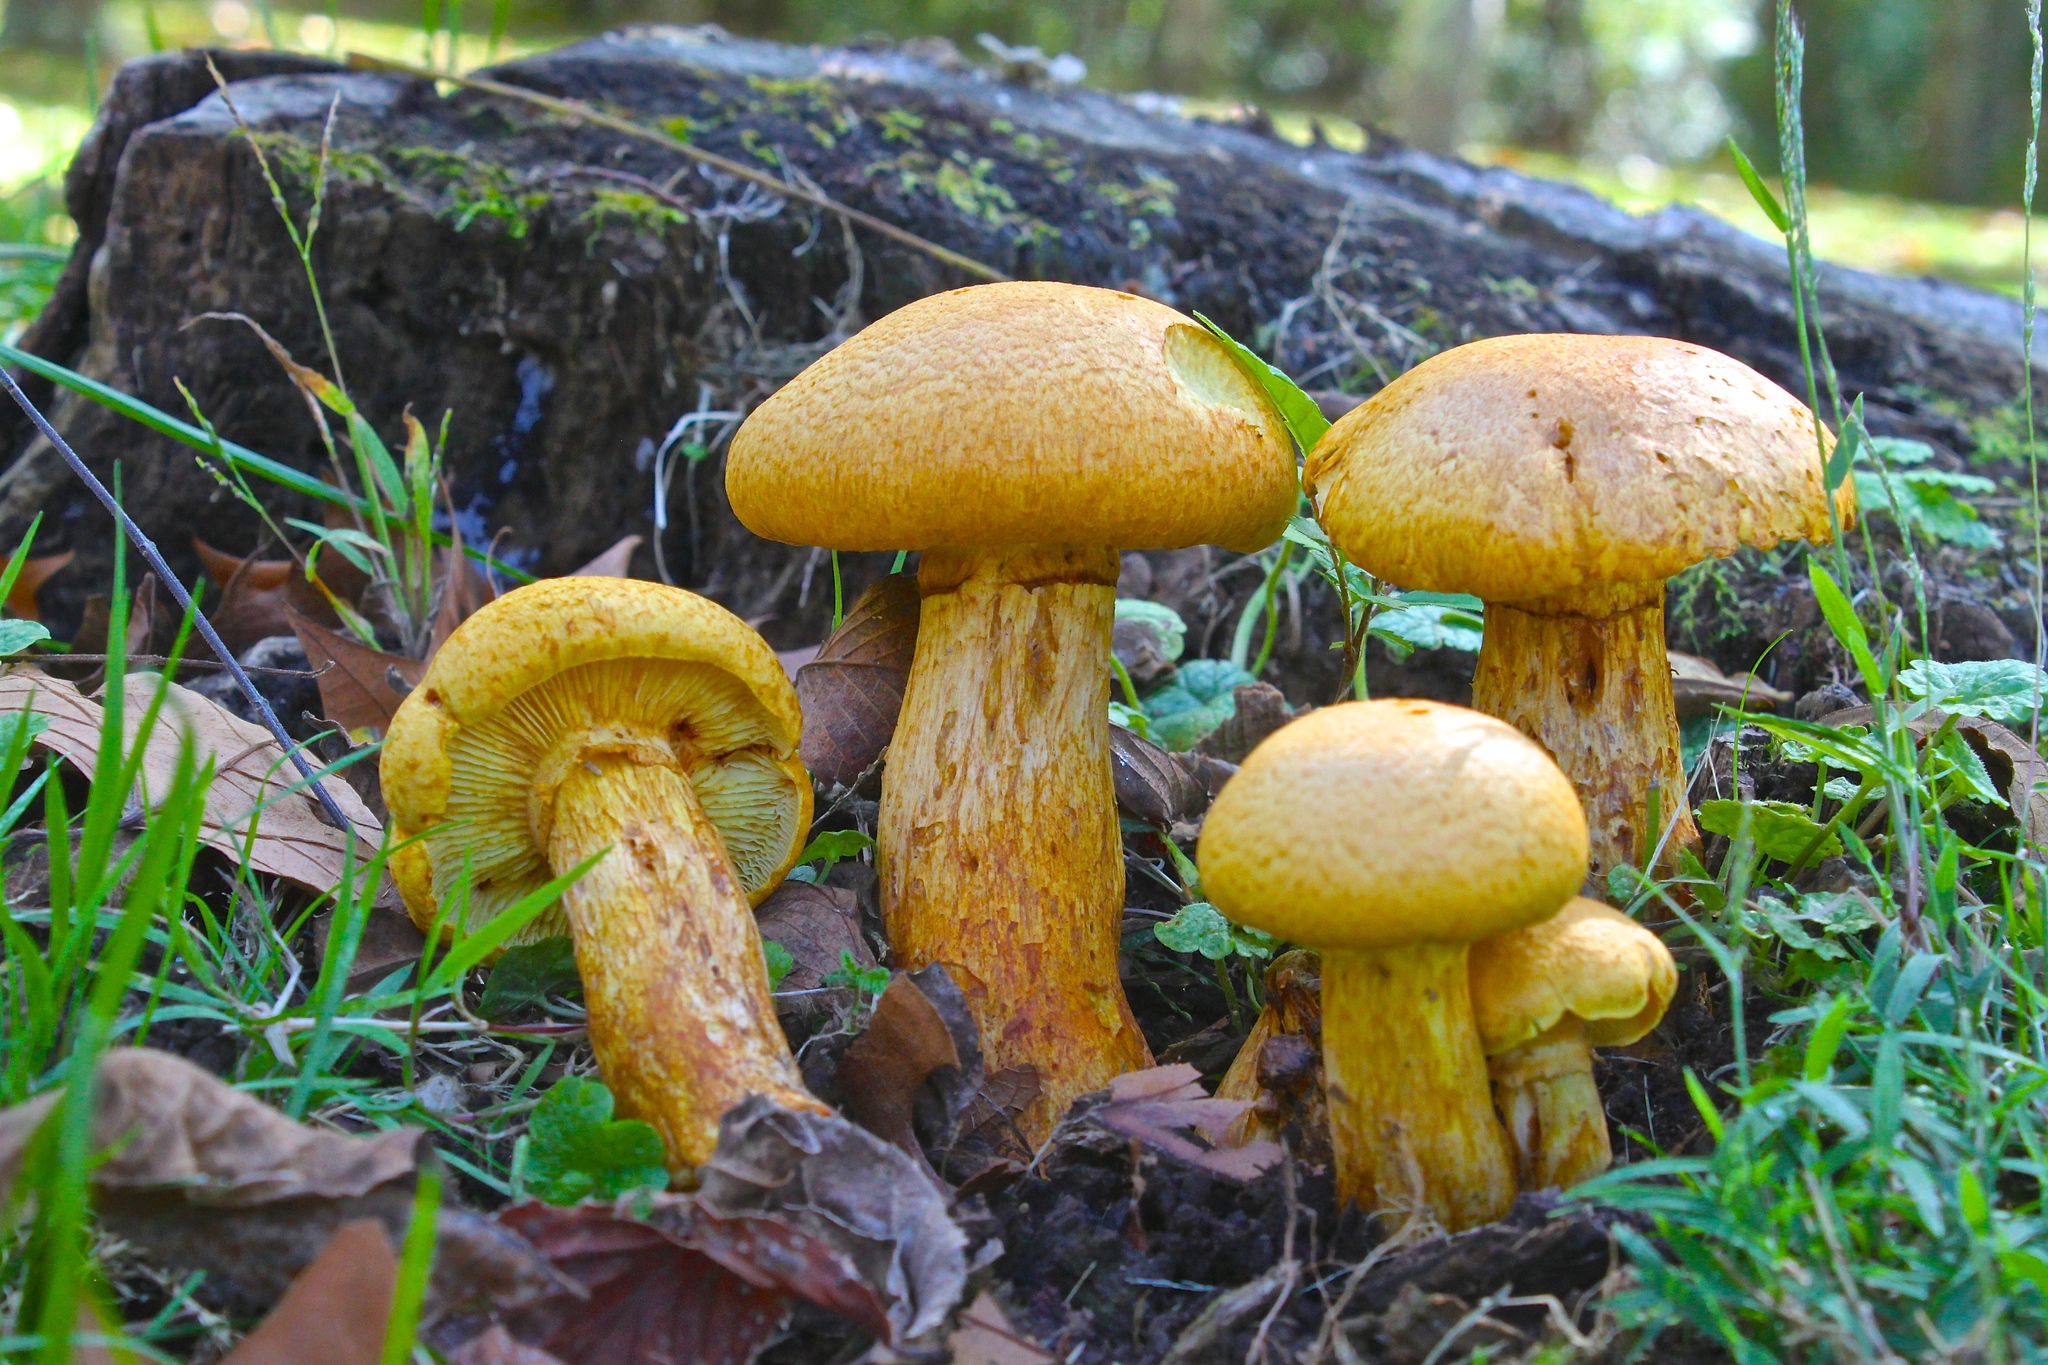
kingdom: Fungi
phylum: Basidiomycota
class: Agaricomycetes
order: Agaricales
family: Hymenogastraceae
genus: Gymnopilus
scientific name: Gymnopilus subspectabilis
